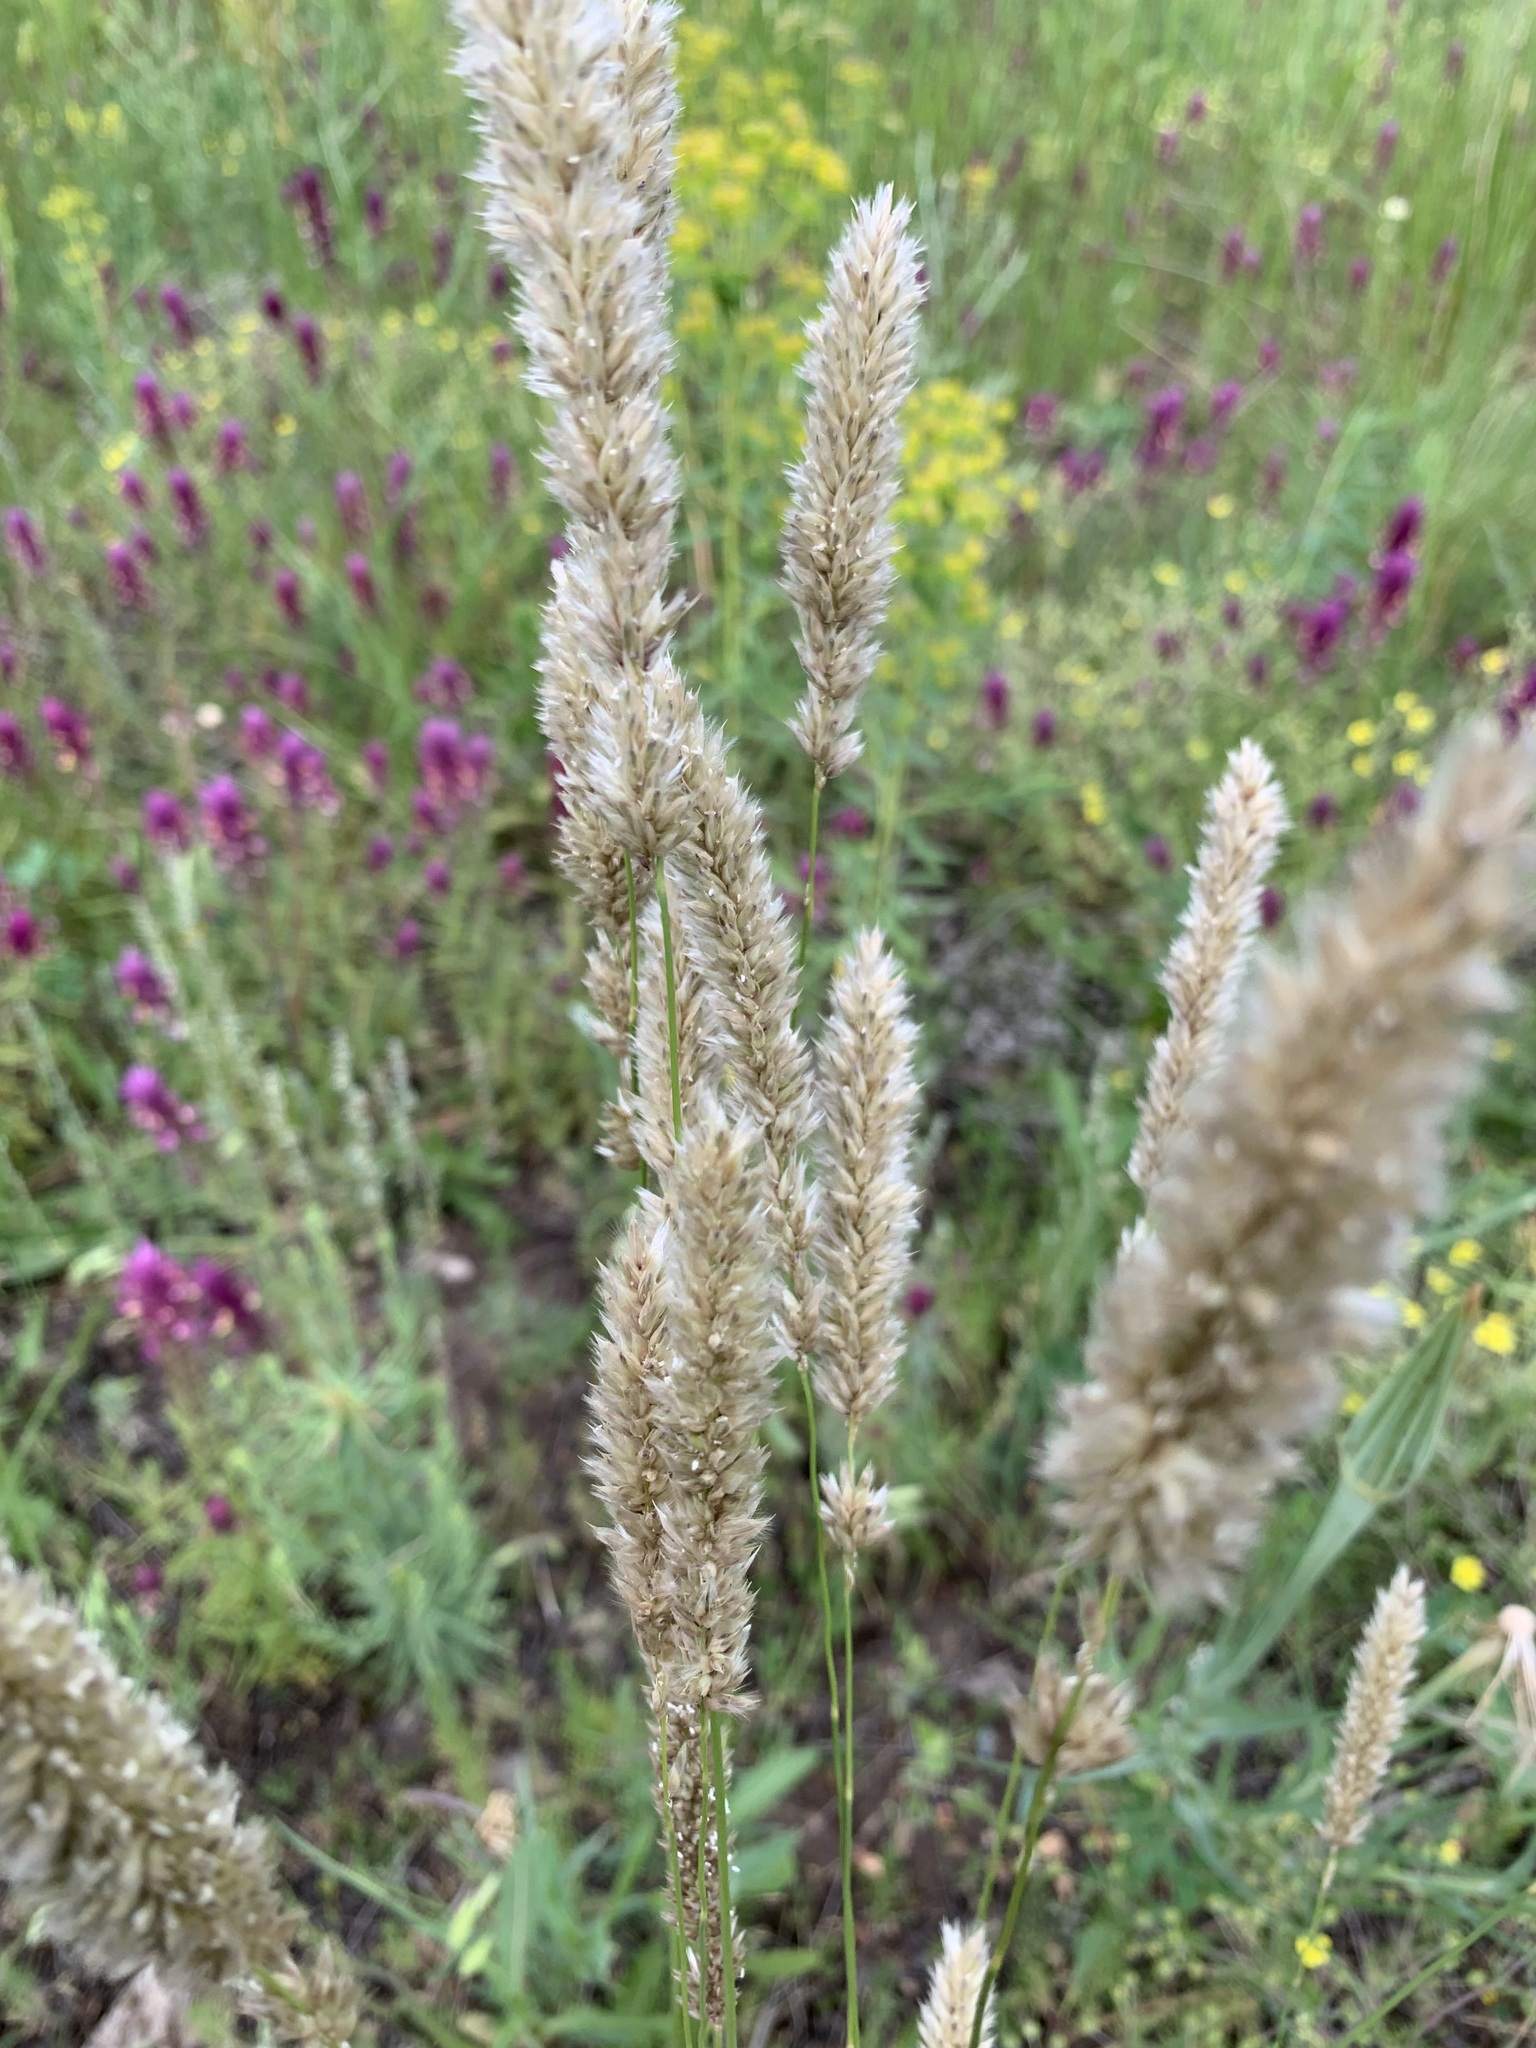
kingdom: Plantae
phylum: Tracheophyta
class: Liliopsida
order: Poales
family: Poaceae
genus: Melica
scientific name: Melica transsilvanica
